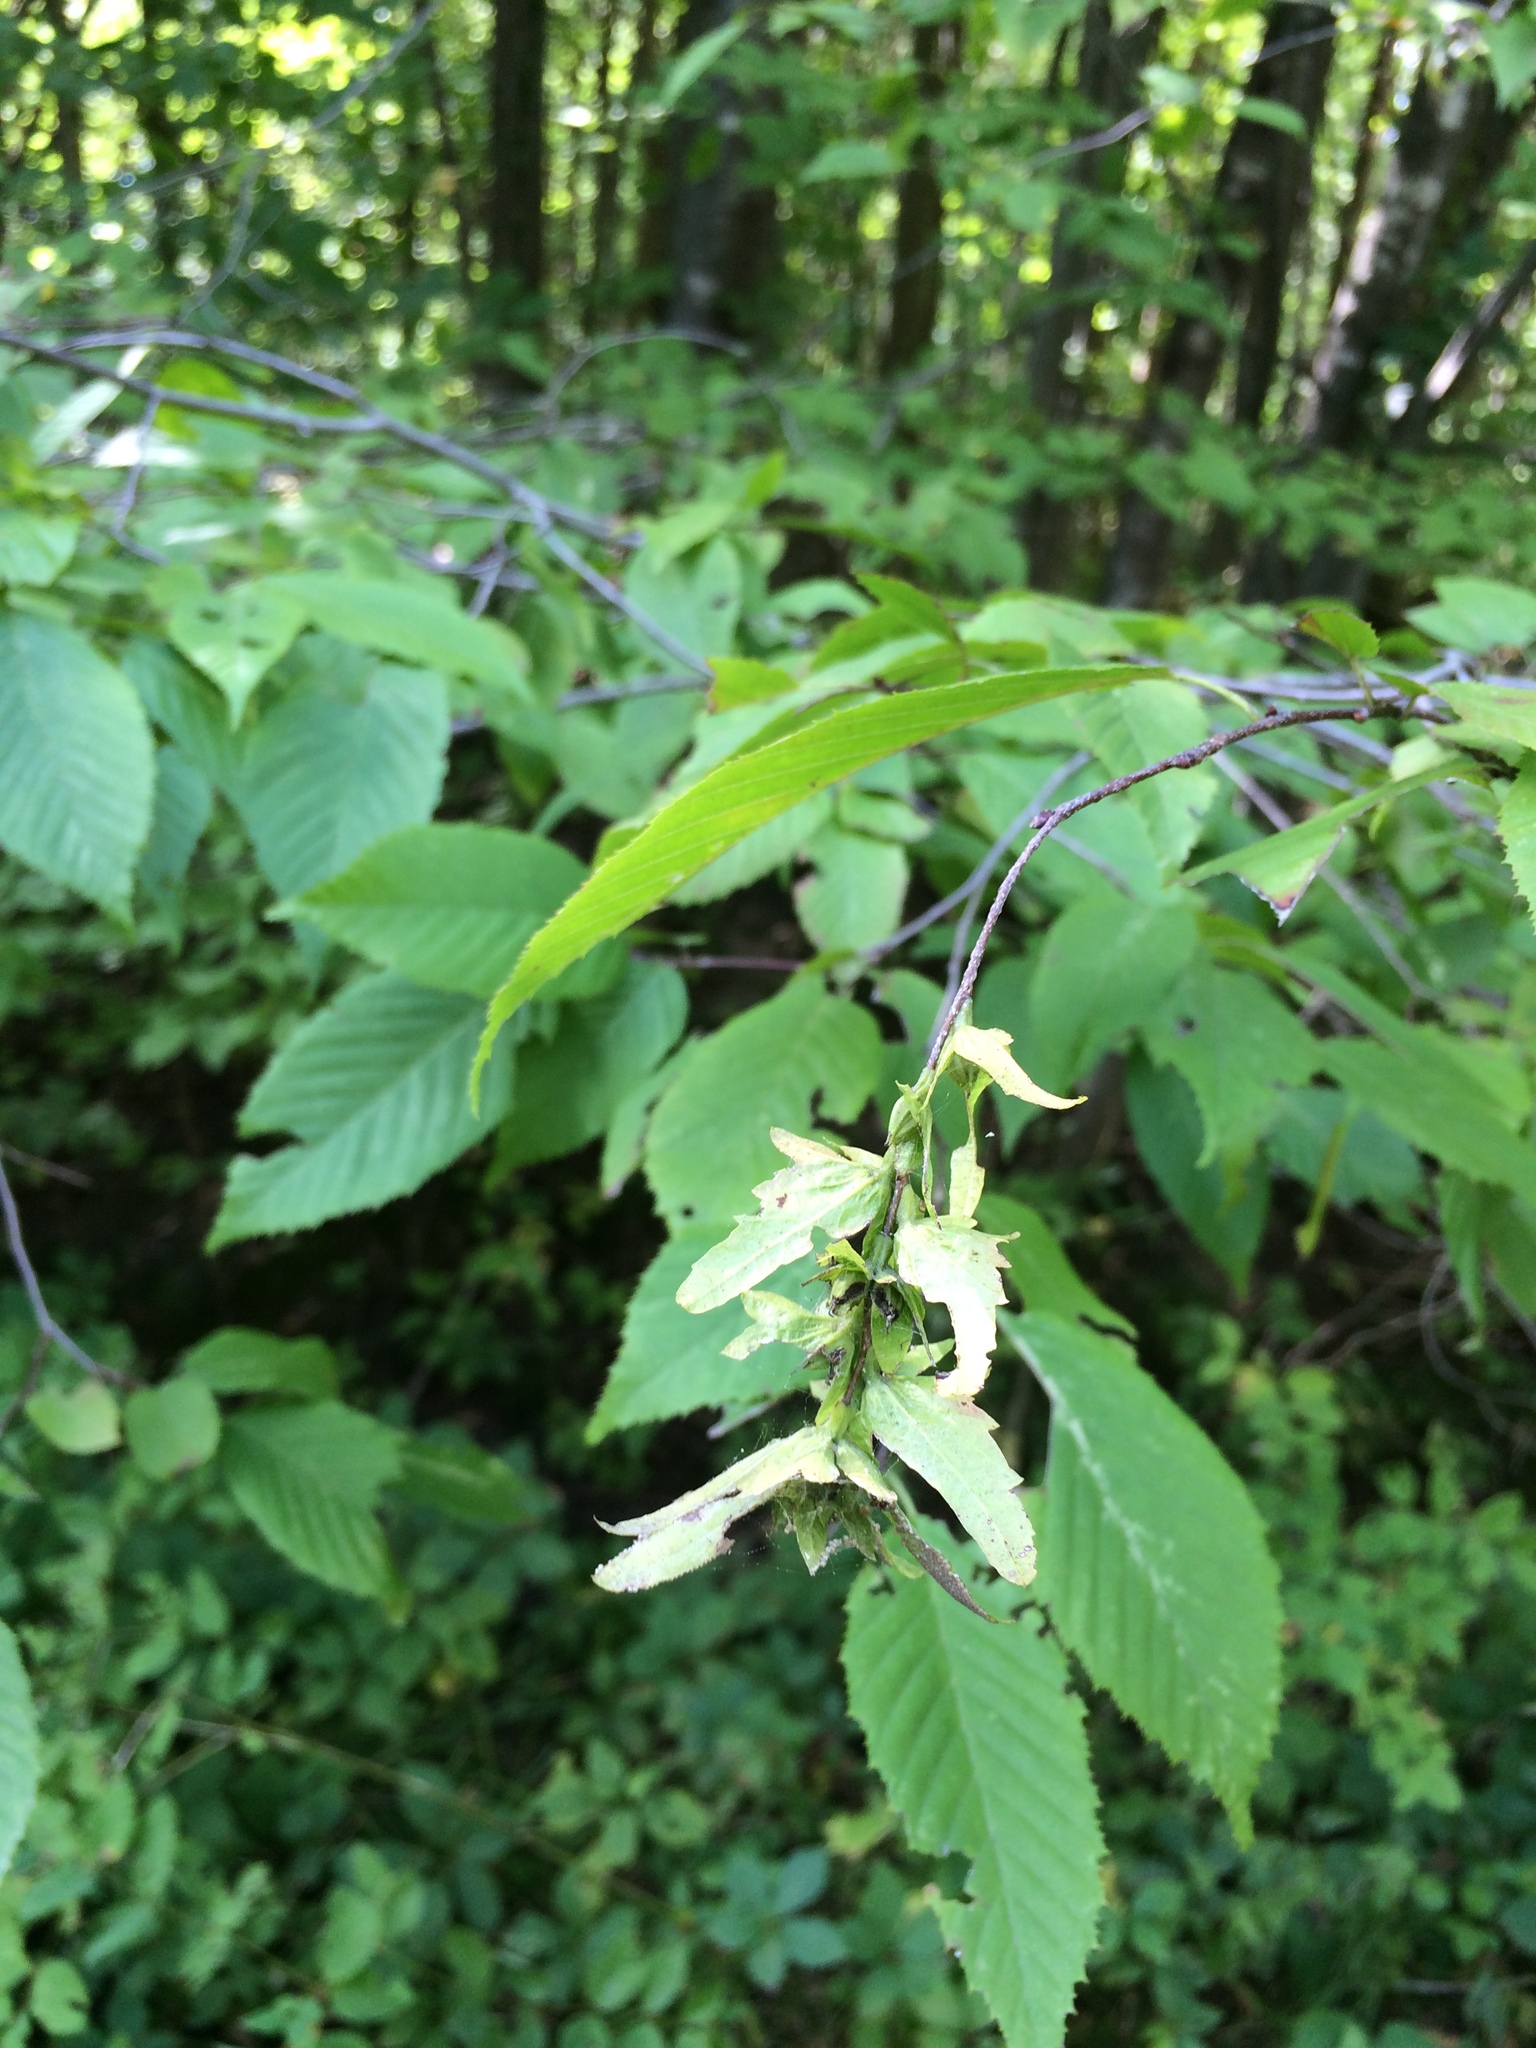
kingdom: Plantae
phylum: Tracheophyta
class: Magnoliopsida
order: Fagales
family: Betulaceae
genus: Carpinus
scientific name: Carpinus caroliniana
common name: American hornbeam
